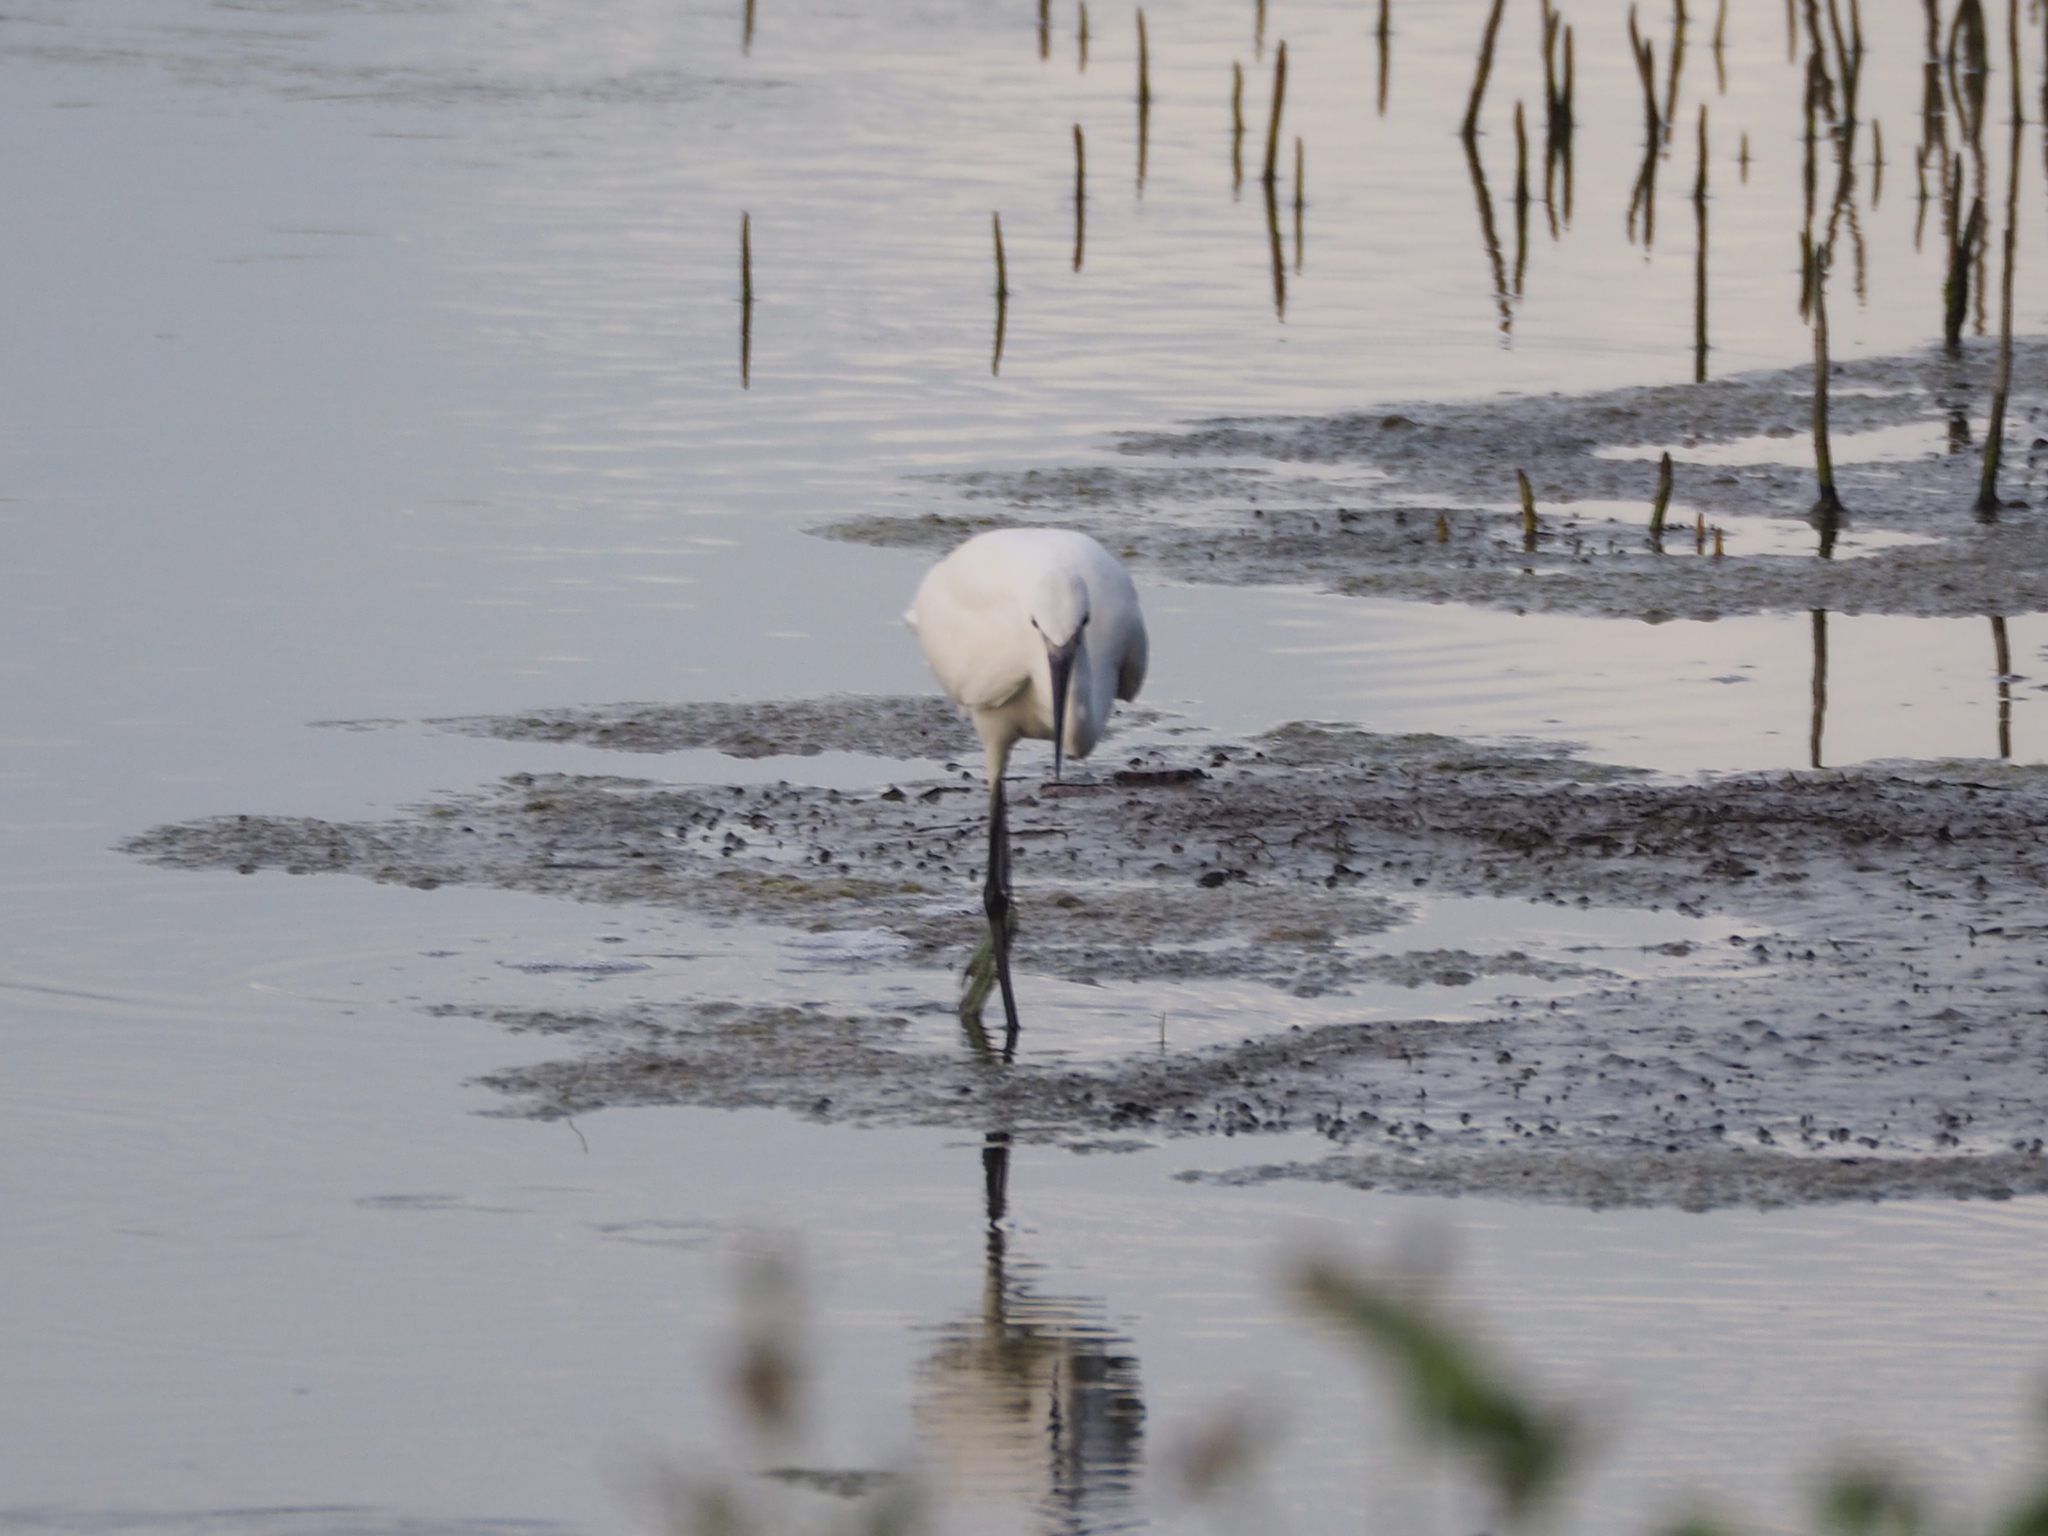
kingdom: Animalia
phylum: Chordata
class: Aves
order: Pelecaniformes
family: Ardeidae
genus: Egretta
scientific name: Egretta garzetta
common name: Little egret
